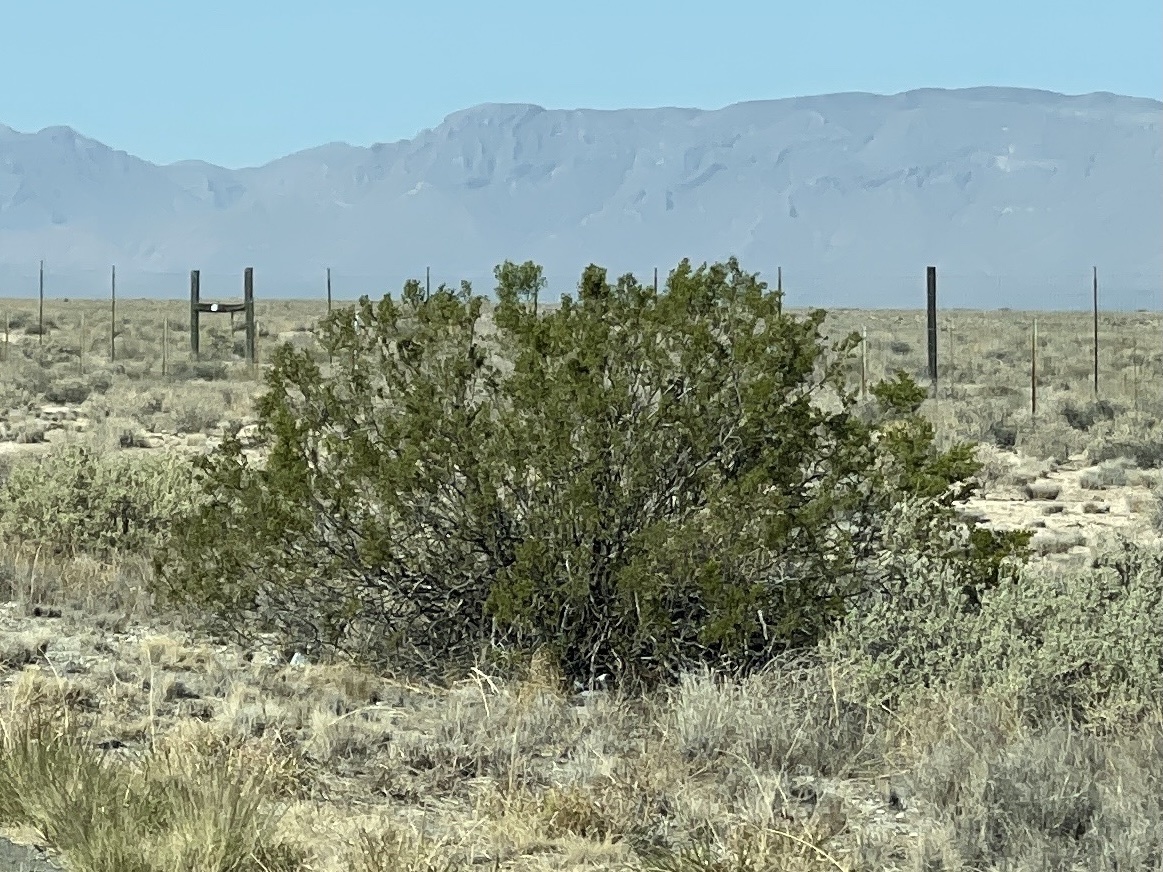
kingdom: Plantae
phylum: Tracheophyta
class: Magnoliopsida
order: Zygophyllales
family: Zygophyllaceae
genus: Larrea
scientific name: Larrea tridentata
